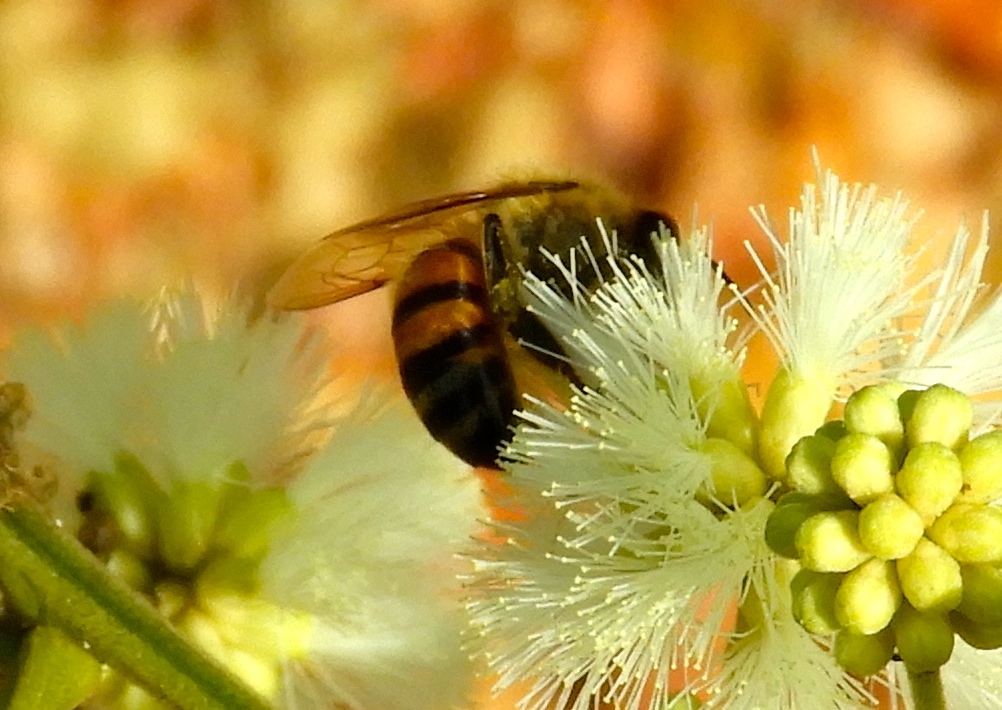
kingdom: Animalia
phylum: Arthropoda
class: Insecta
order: Hymenoptera
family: Apidae
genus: Apis
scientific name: Apis mellifera
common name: Honey bee
